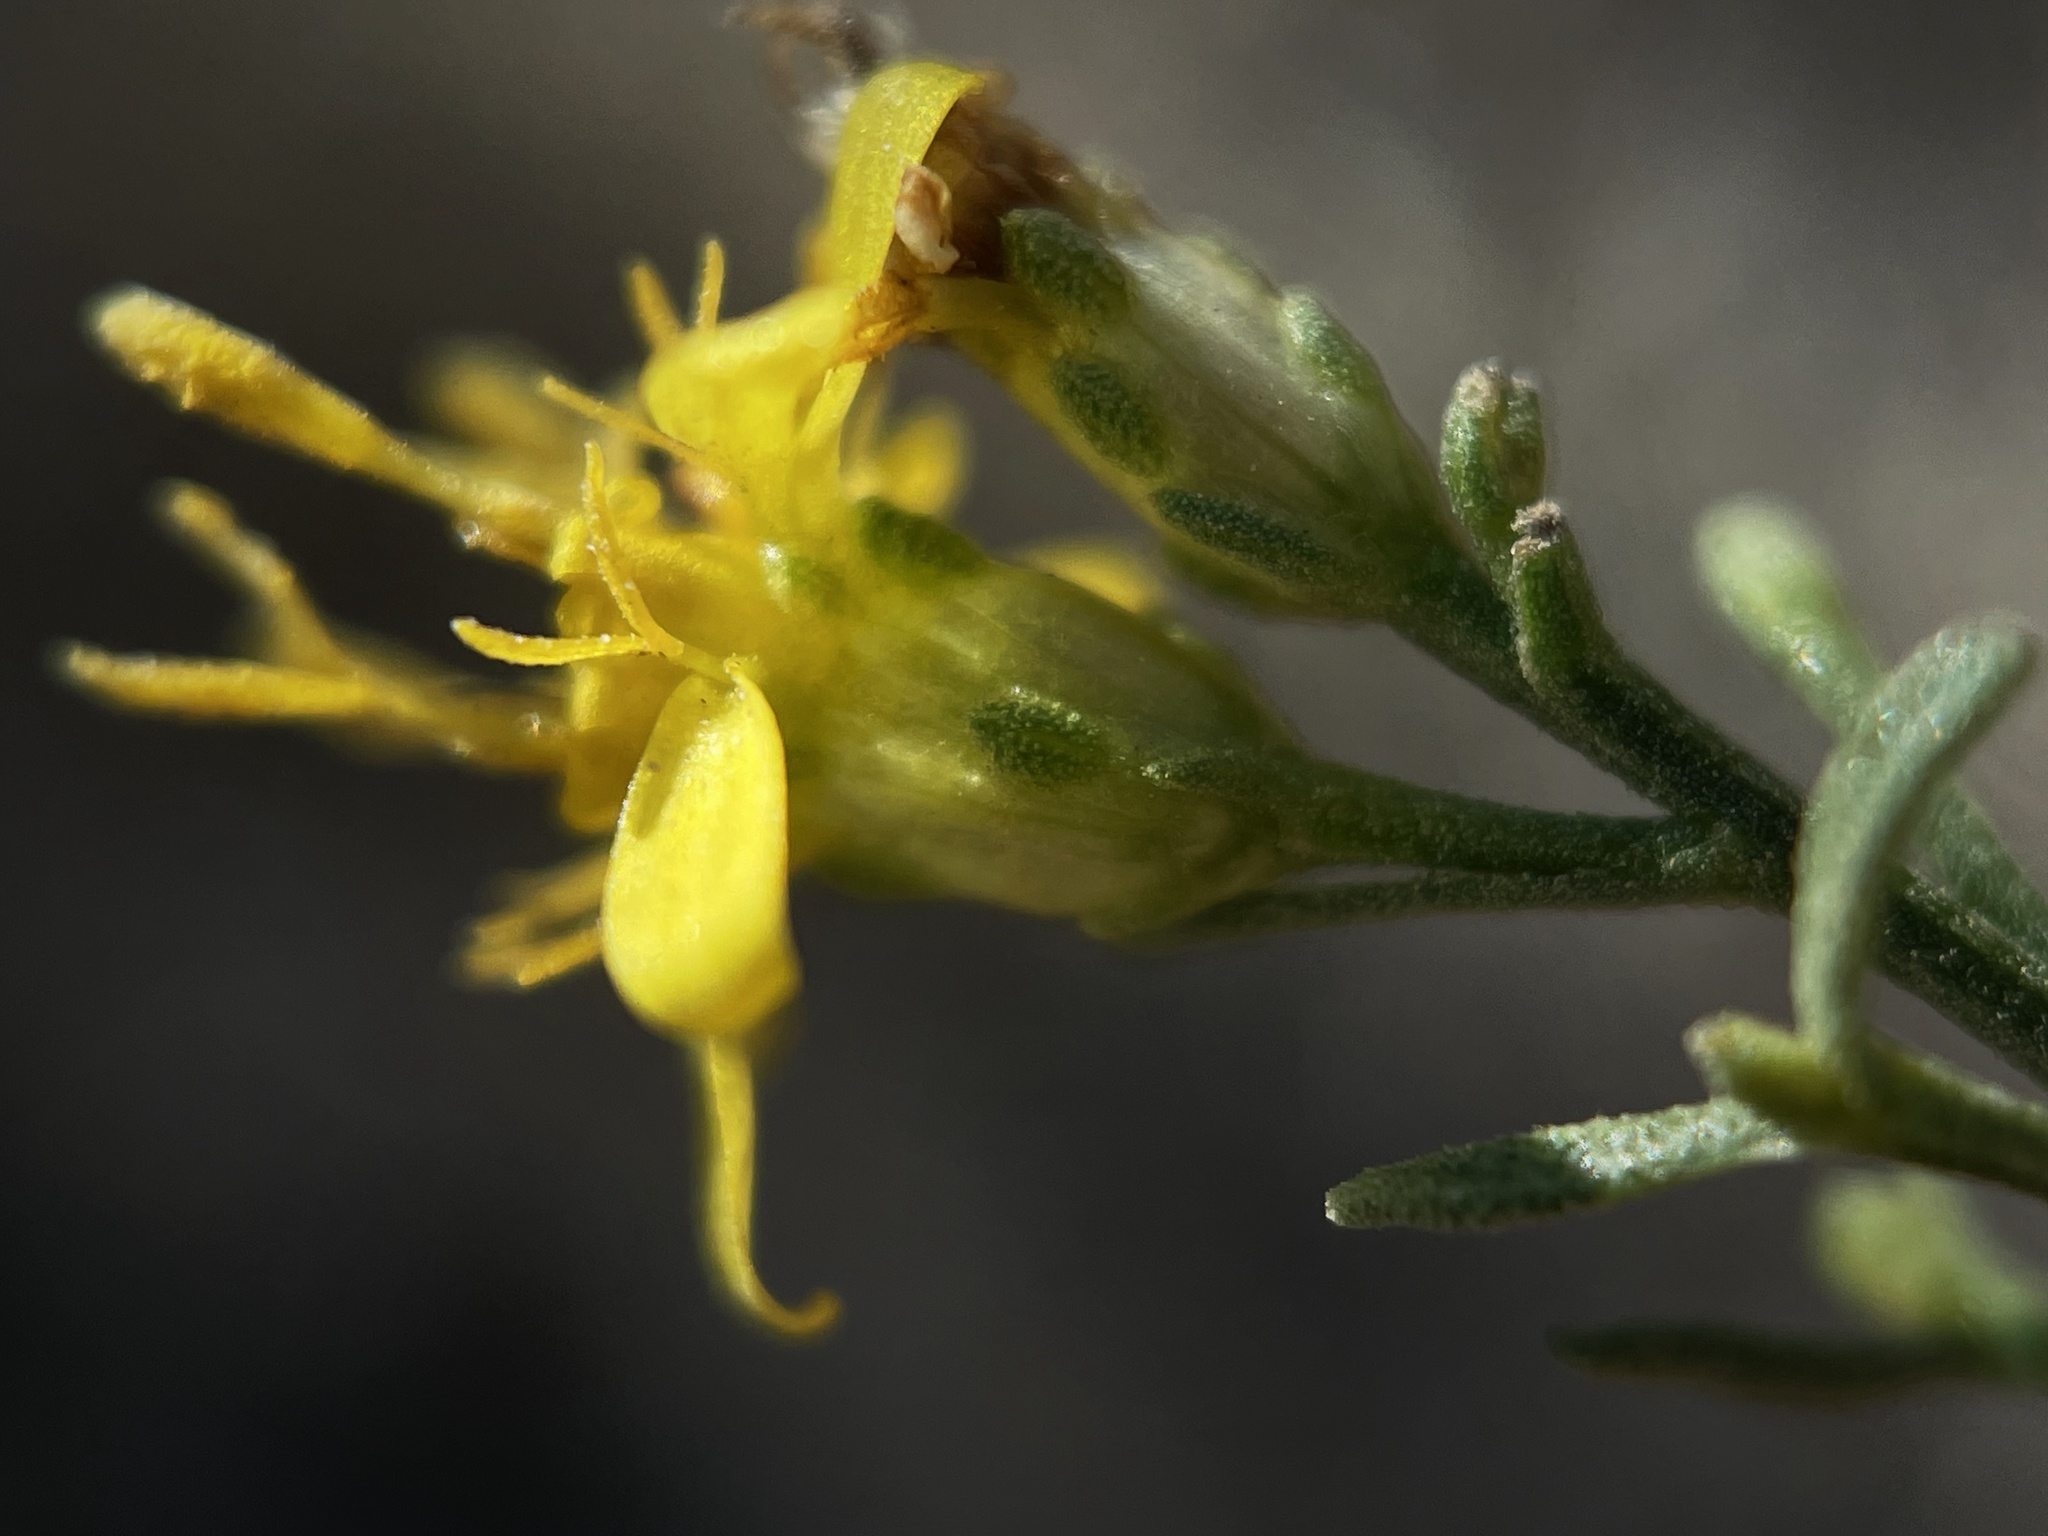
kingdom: Plantae
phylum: Tracheophyta
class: Magnoliopsida
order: Asterales
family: Asteraceae
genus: Gutierrezia
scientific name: Gutierrezia sarothrae
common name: Broom snakeweed
